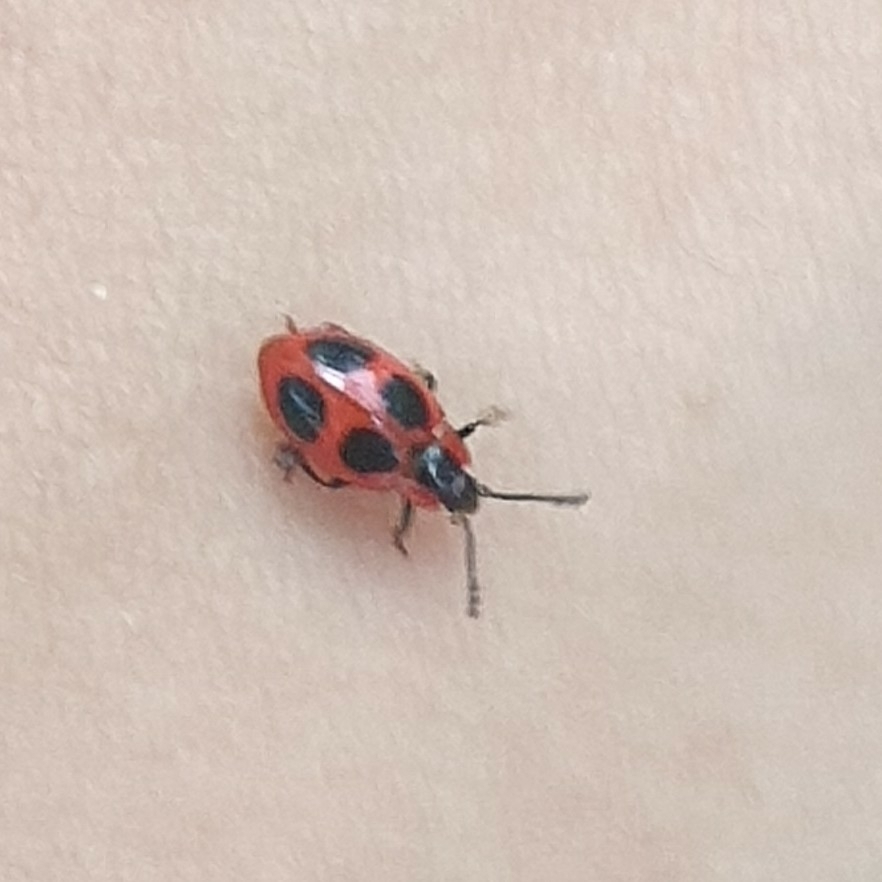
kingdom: Animalia
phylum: Arthropoda
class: Insecta
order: Coleoptera
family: Endomychidae
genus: Endomychus
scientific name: Endomychus coccineus
